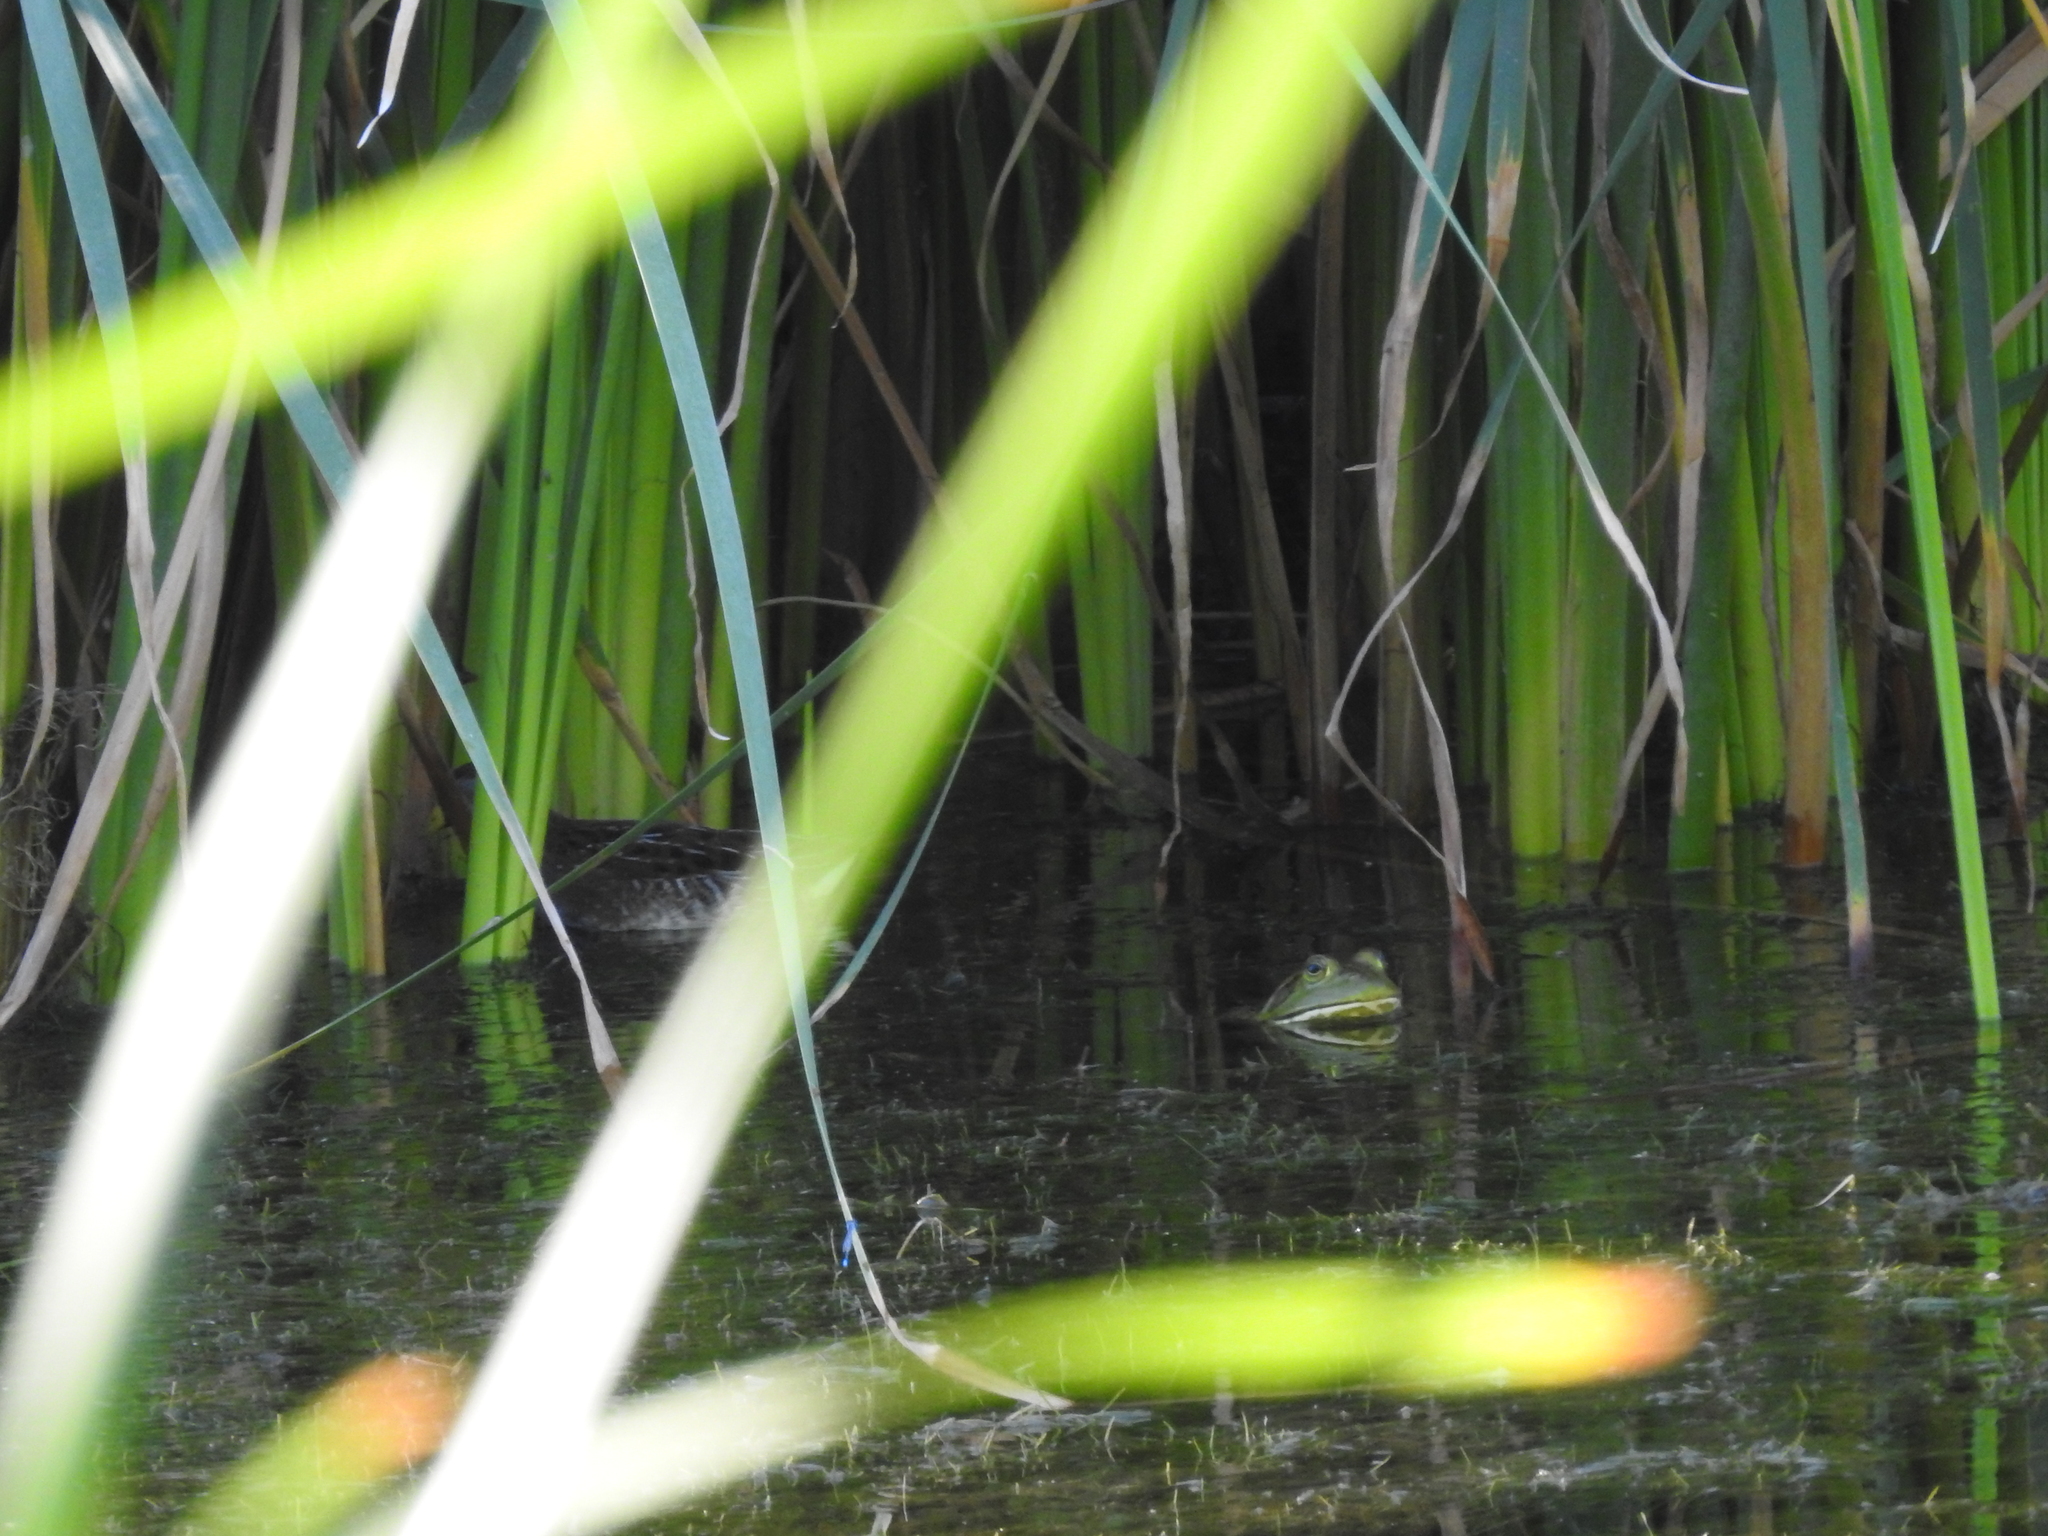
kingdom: Animalia
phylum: Chordata
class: Aves
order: Gruiformes
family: Rallidae
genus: Porzana
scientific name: Porzana carolina
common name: Sora
